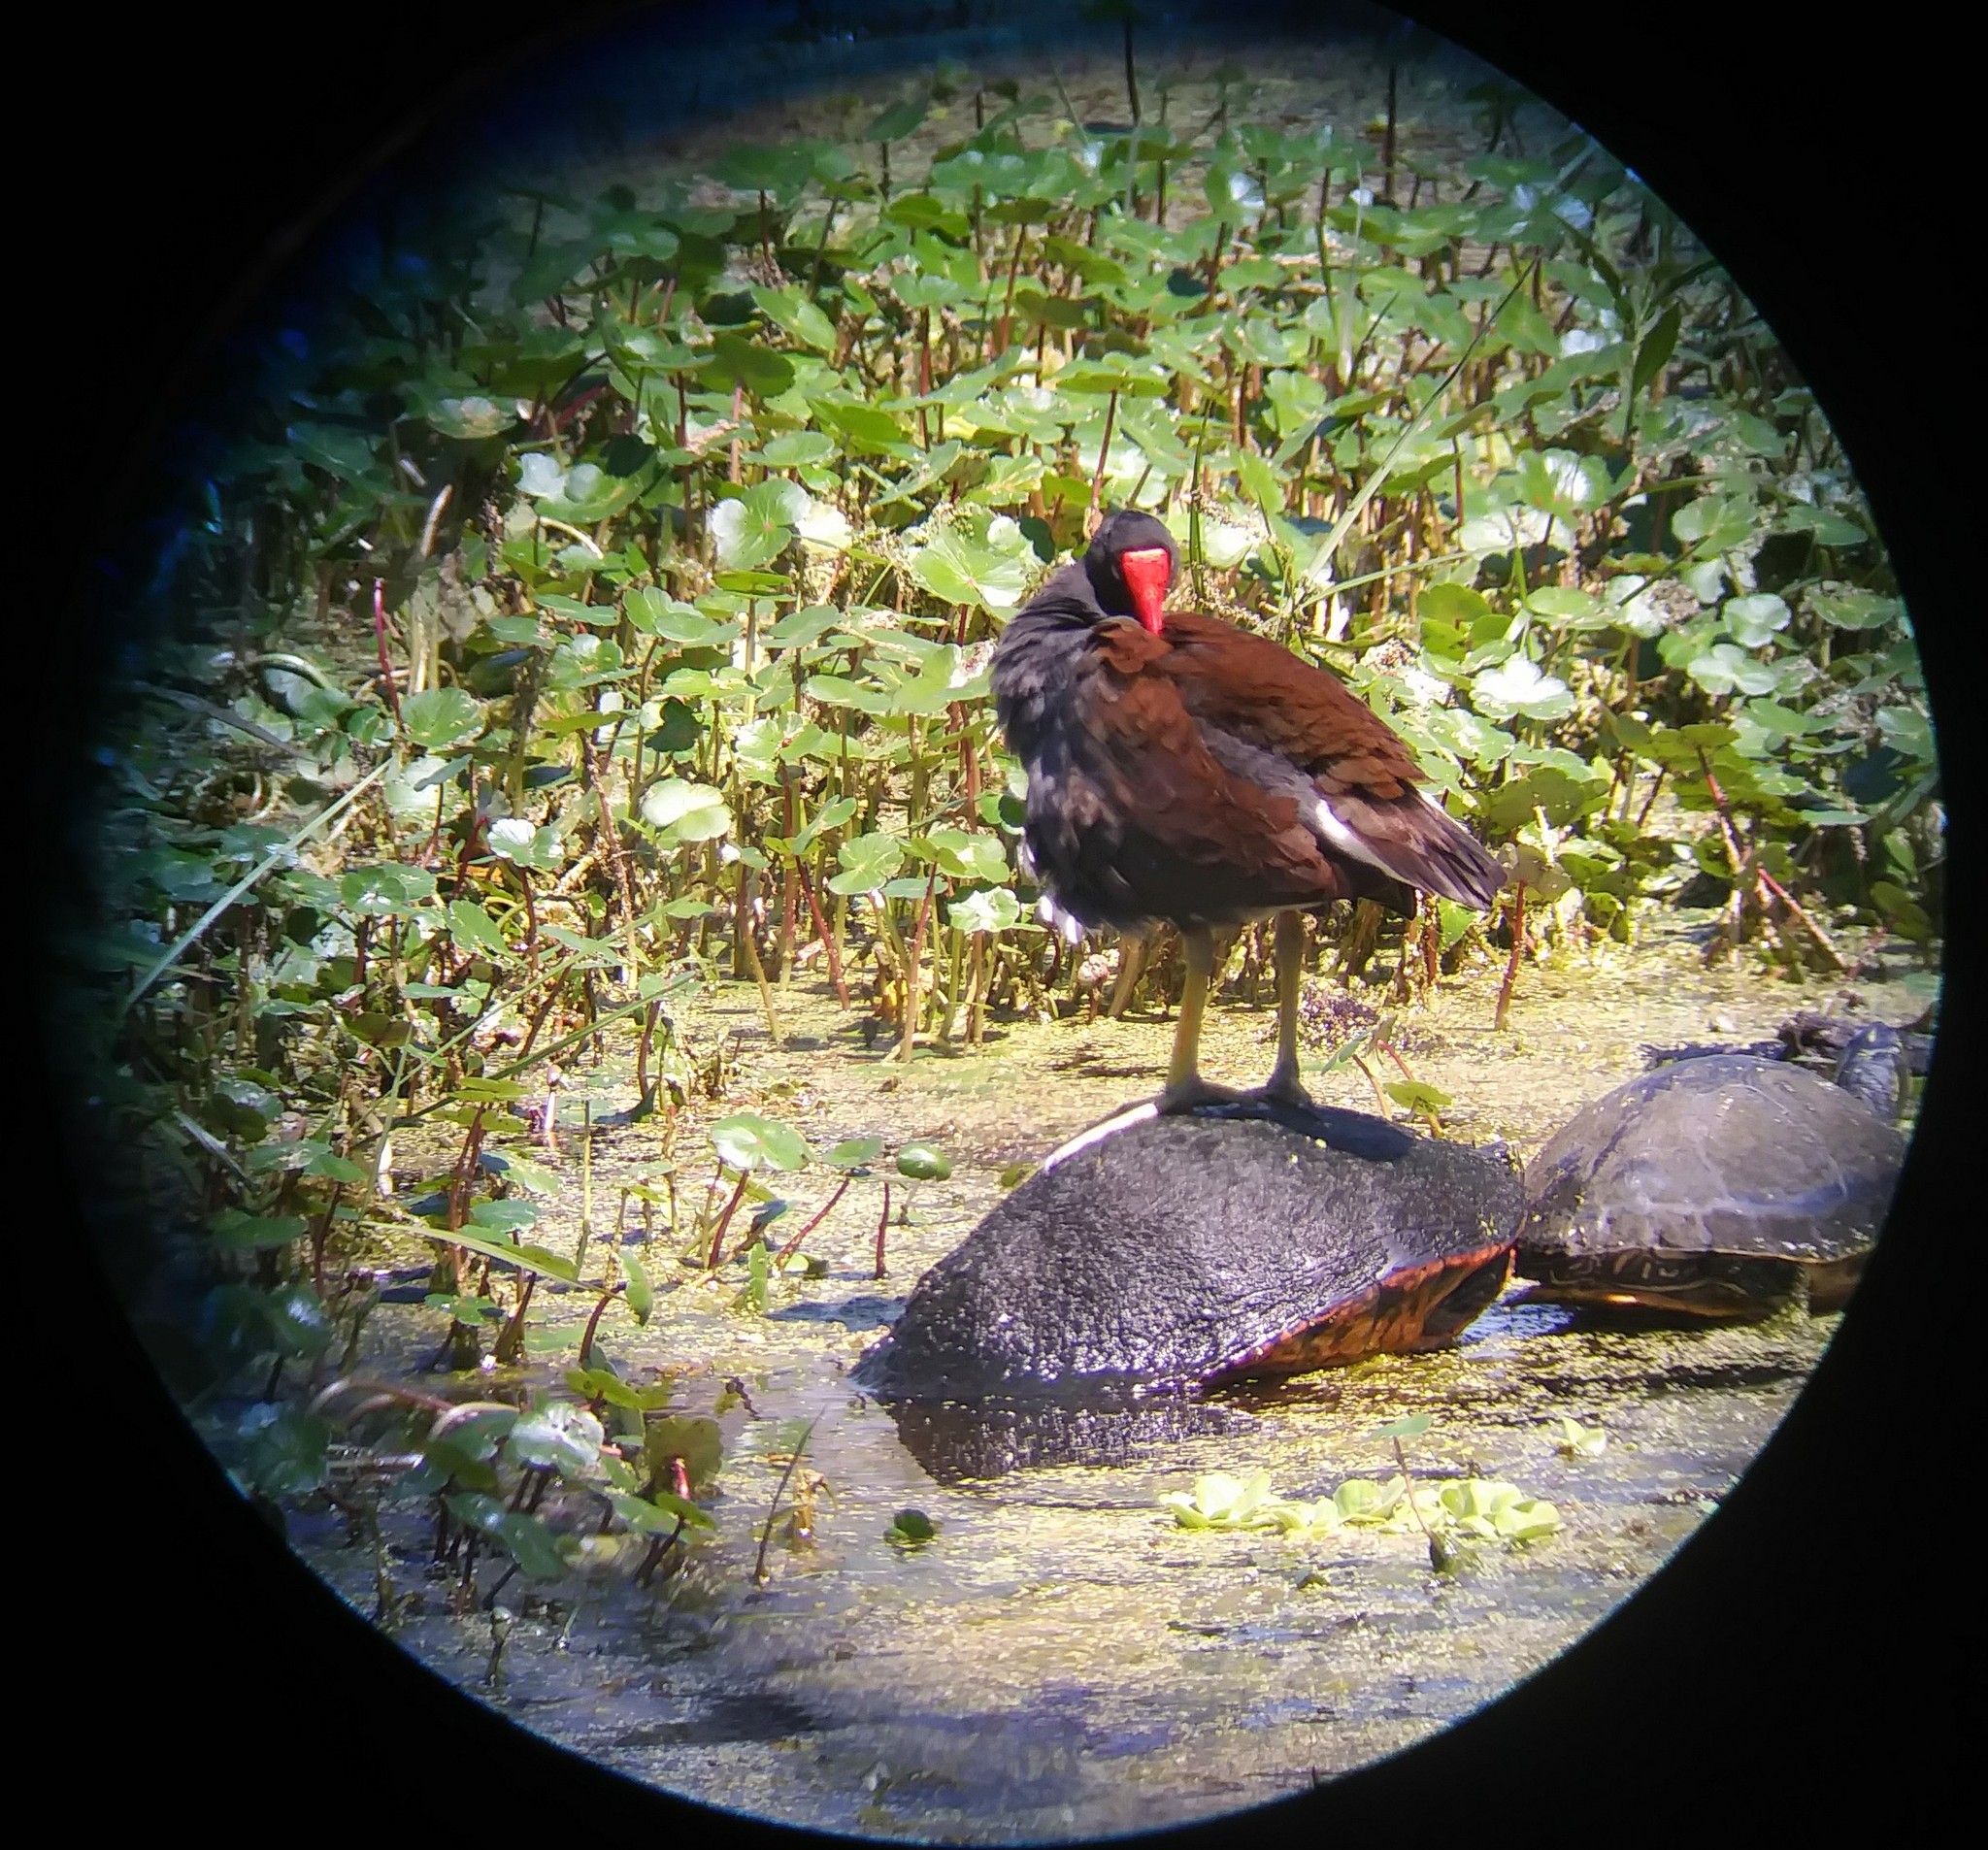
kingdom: Animalia
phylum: Chordata
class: Testudines
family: Emydidae
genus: Pseudemys
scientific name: Pseudemys nelsoni
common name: Florida red-bellied turtle
